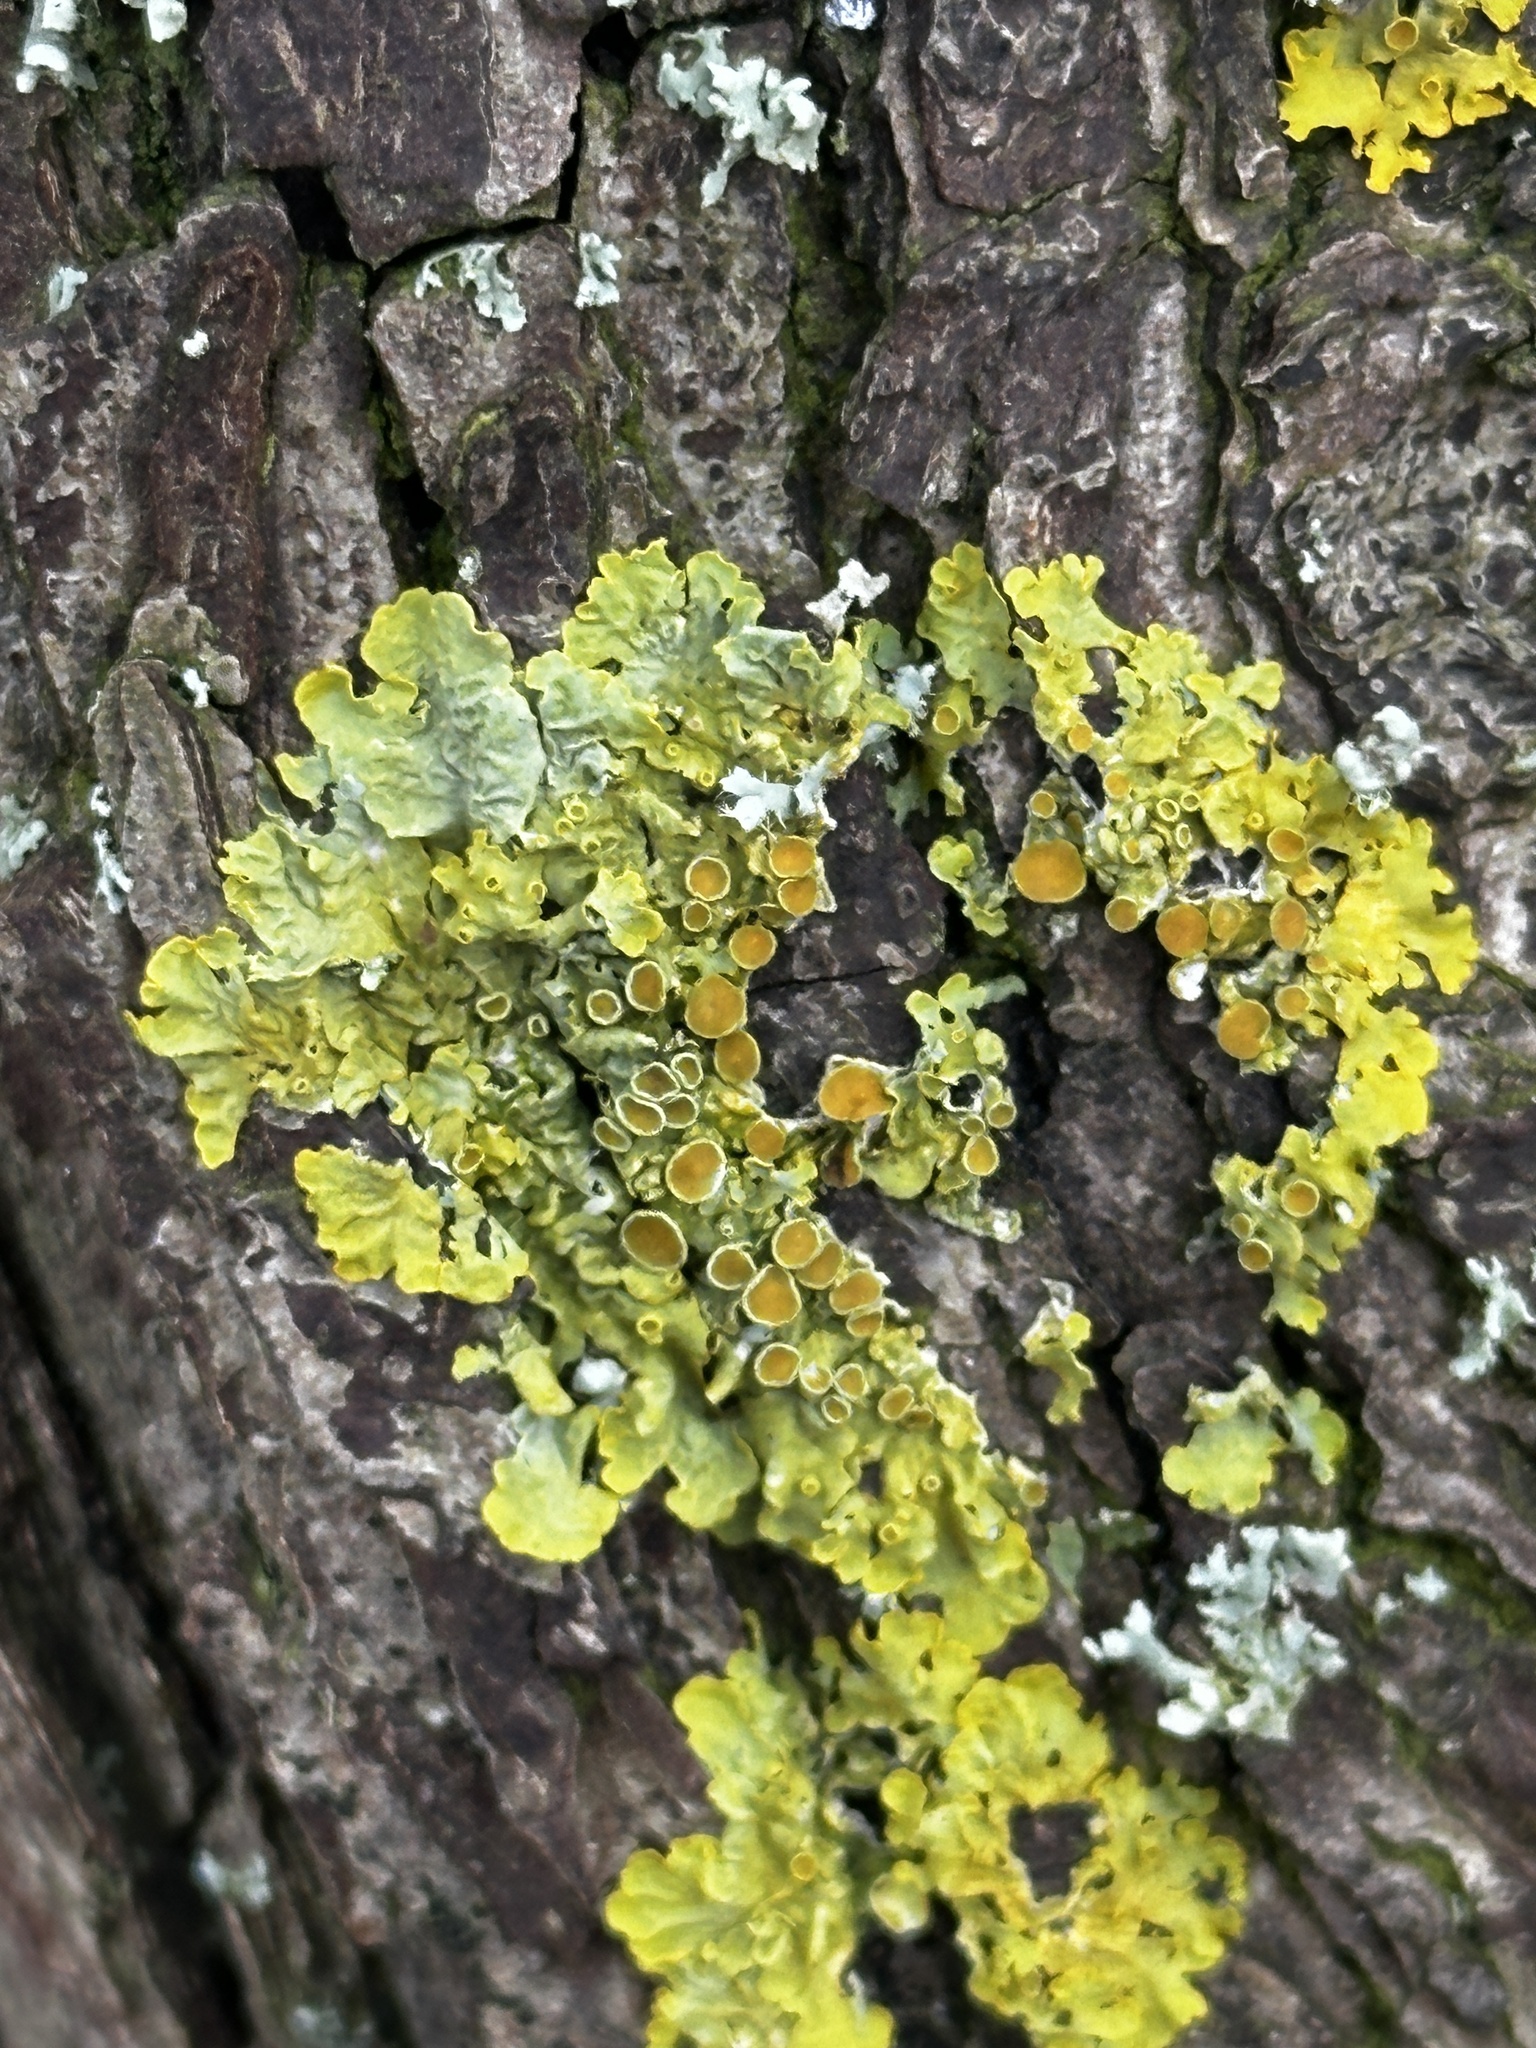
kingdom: Fungi
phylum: Ascomycota
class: Lecanoromycetes
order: Teloschistales
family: Teloschistaceae
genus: Xanthoria
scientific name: Xanthoria parietina
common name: Common orange lichen
